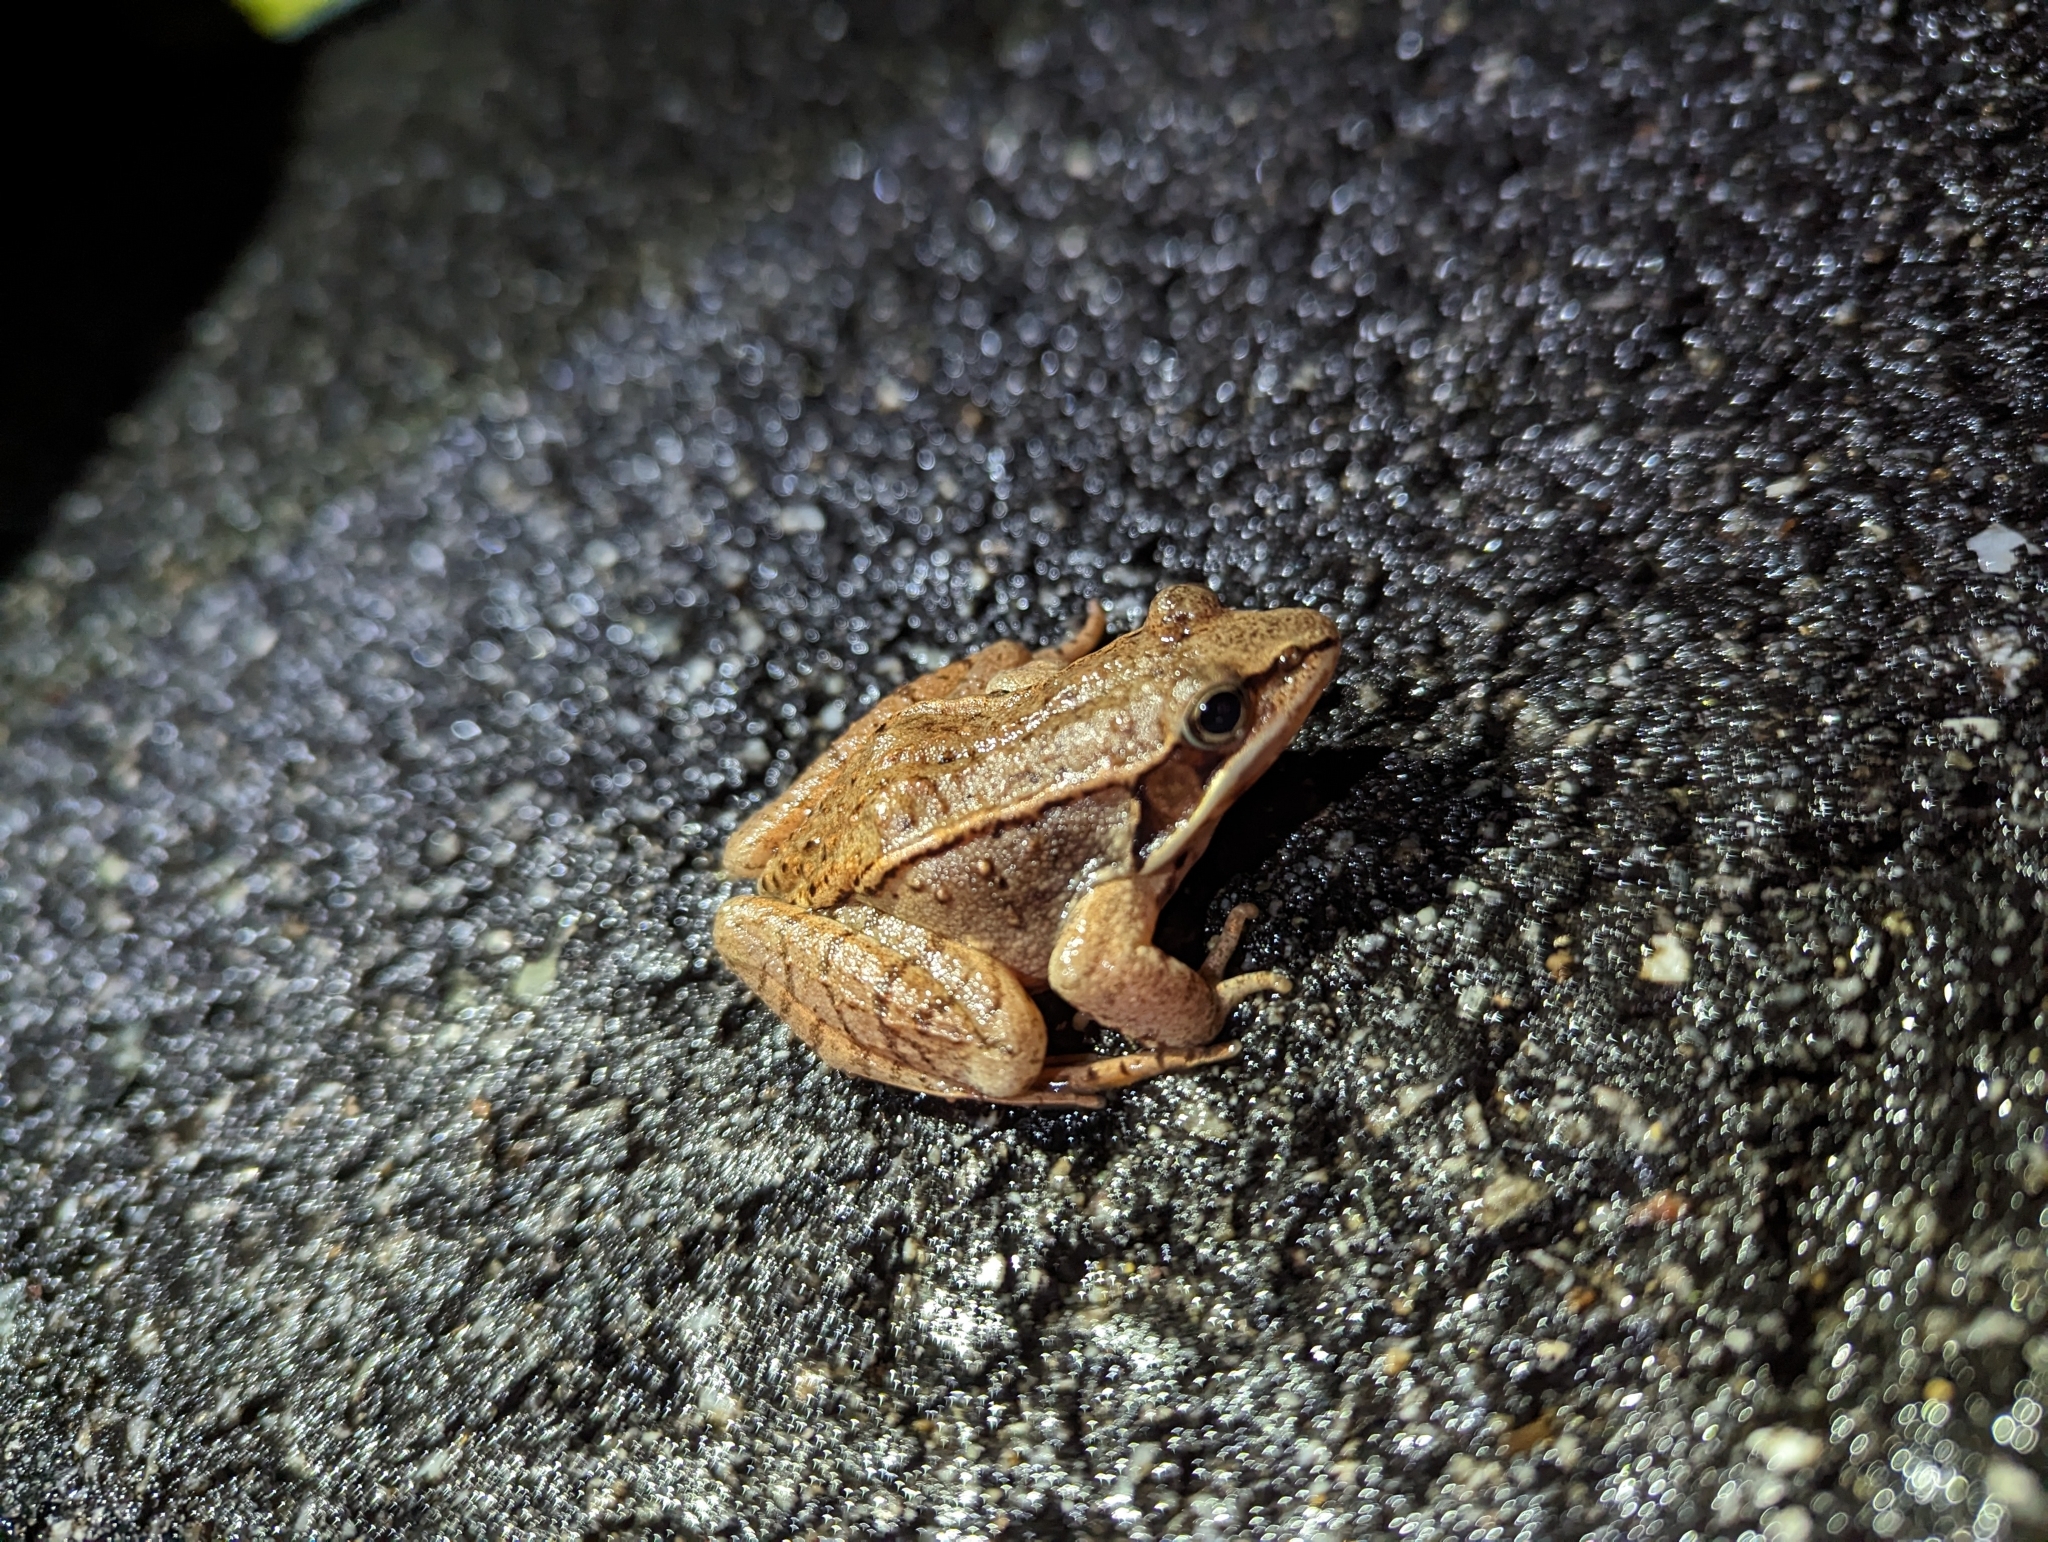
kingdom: Animalia
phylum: Chordata
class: Amphibia
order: Anura
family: Ranidae
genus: Lithobates
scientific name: Lithobates sylvaticus
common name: Wood frog
